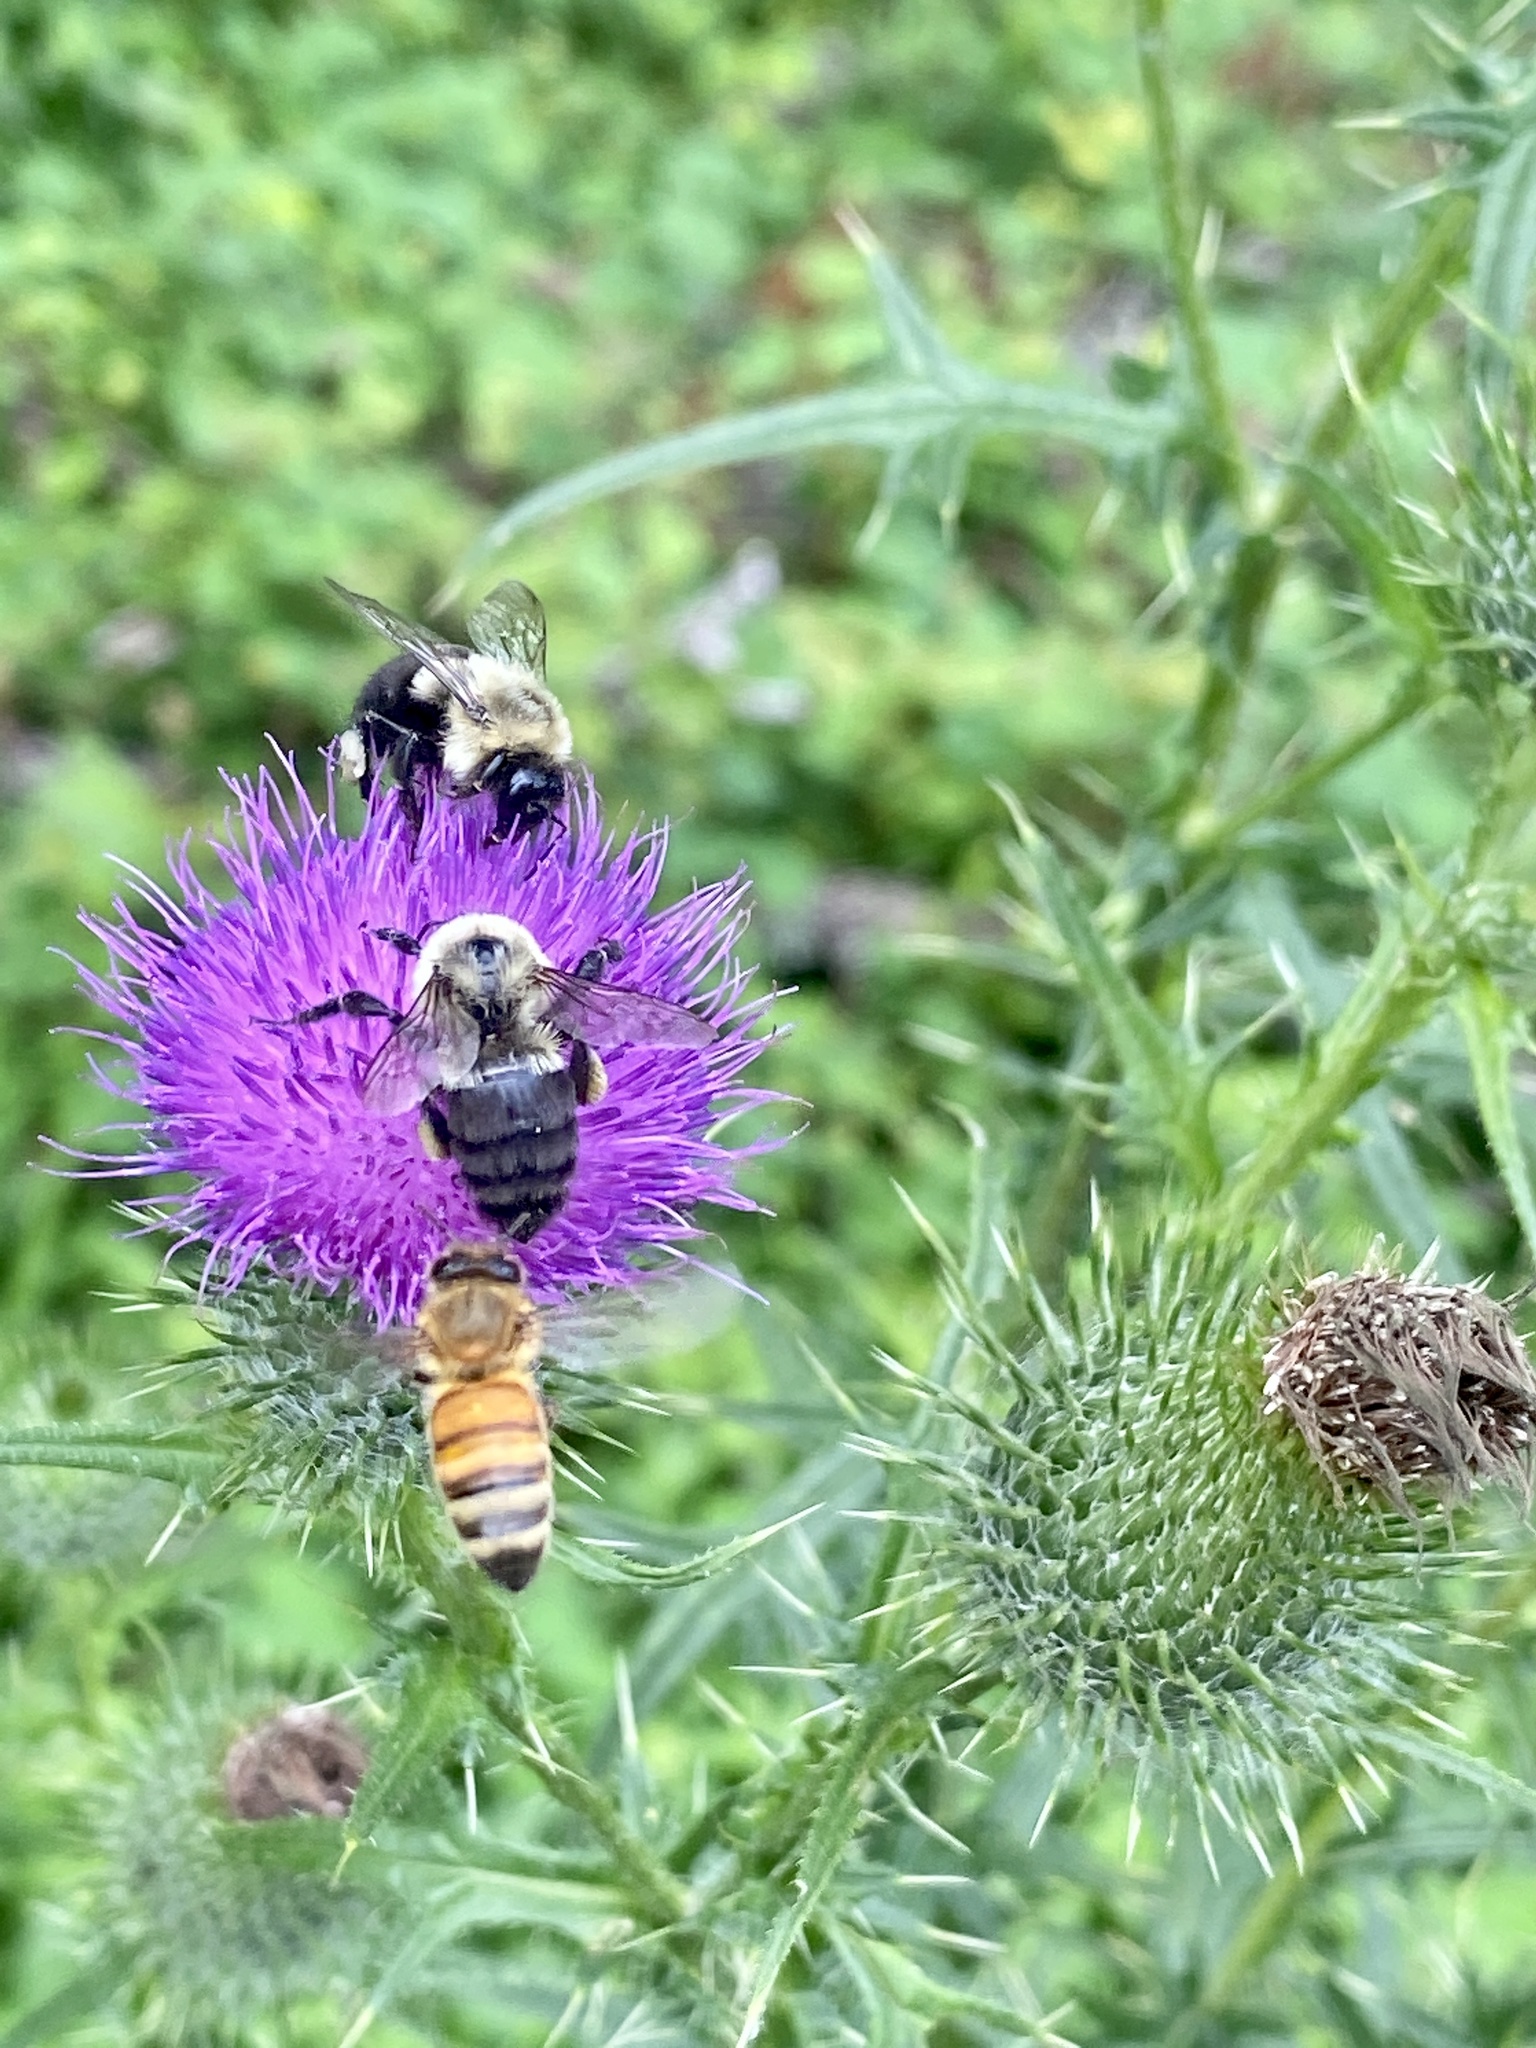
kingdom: Animalia
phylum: Arthropoda
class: Insecta
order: Hymenoptera
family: Apidae
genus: Apis
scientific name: Apis mellifera
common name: Honey bee
